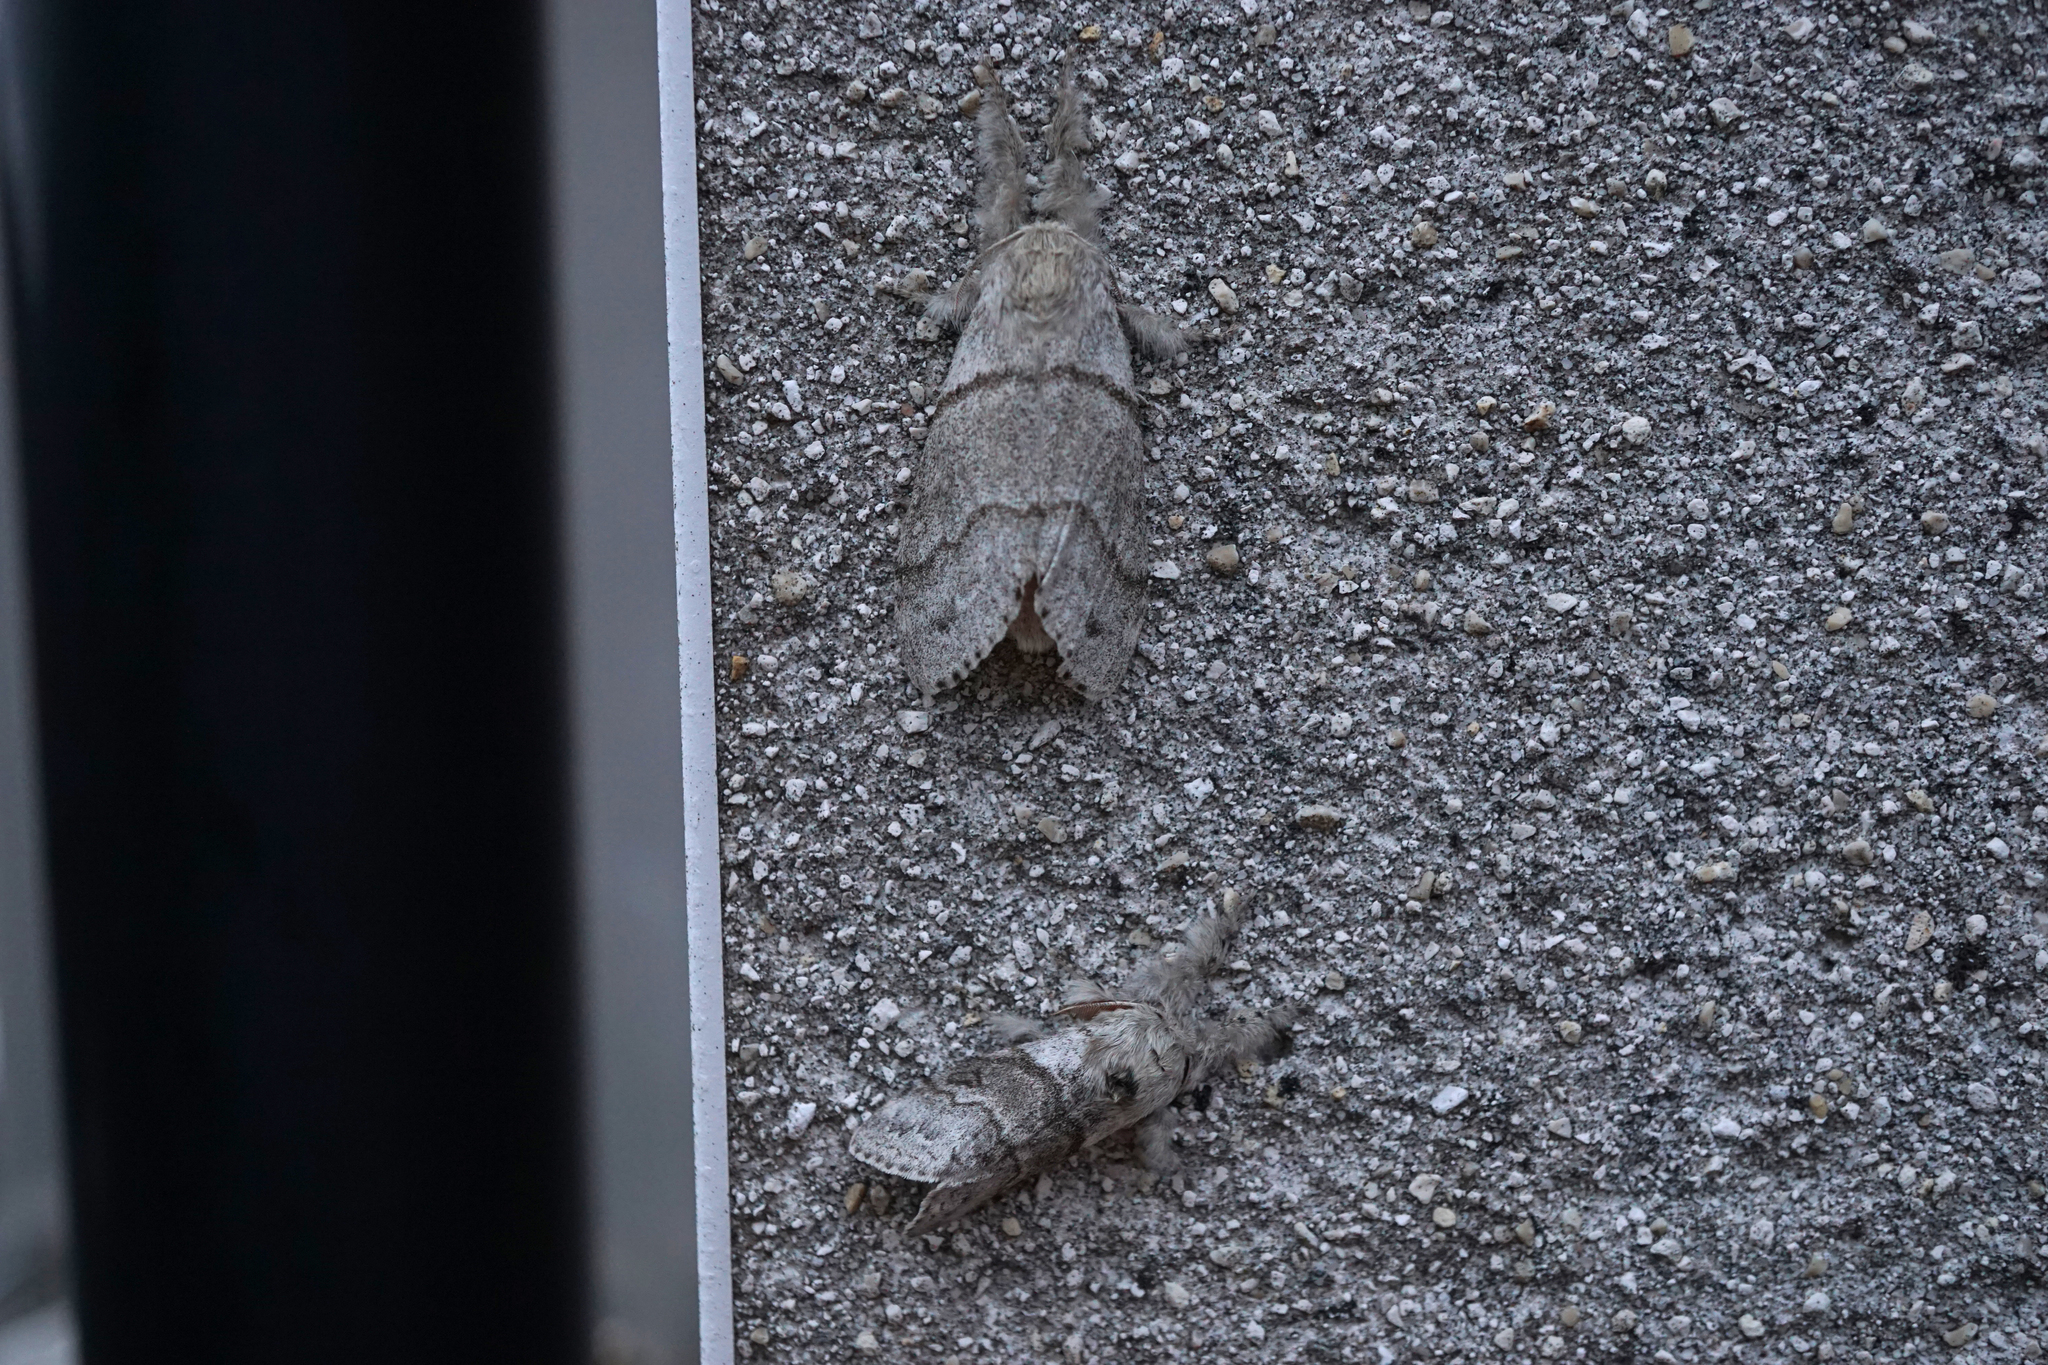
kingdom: Animalia
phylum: Arthropoda
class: Insecta
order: Lepidoptera
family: Erebidae
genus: Calliteara
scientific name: Calliteara pudibunda
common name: Pale tussock
